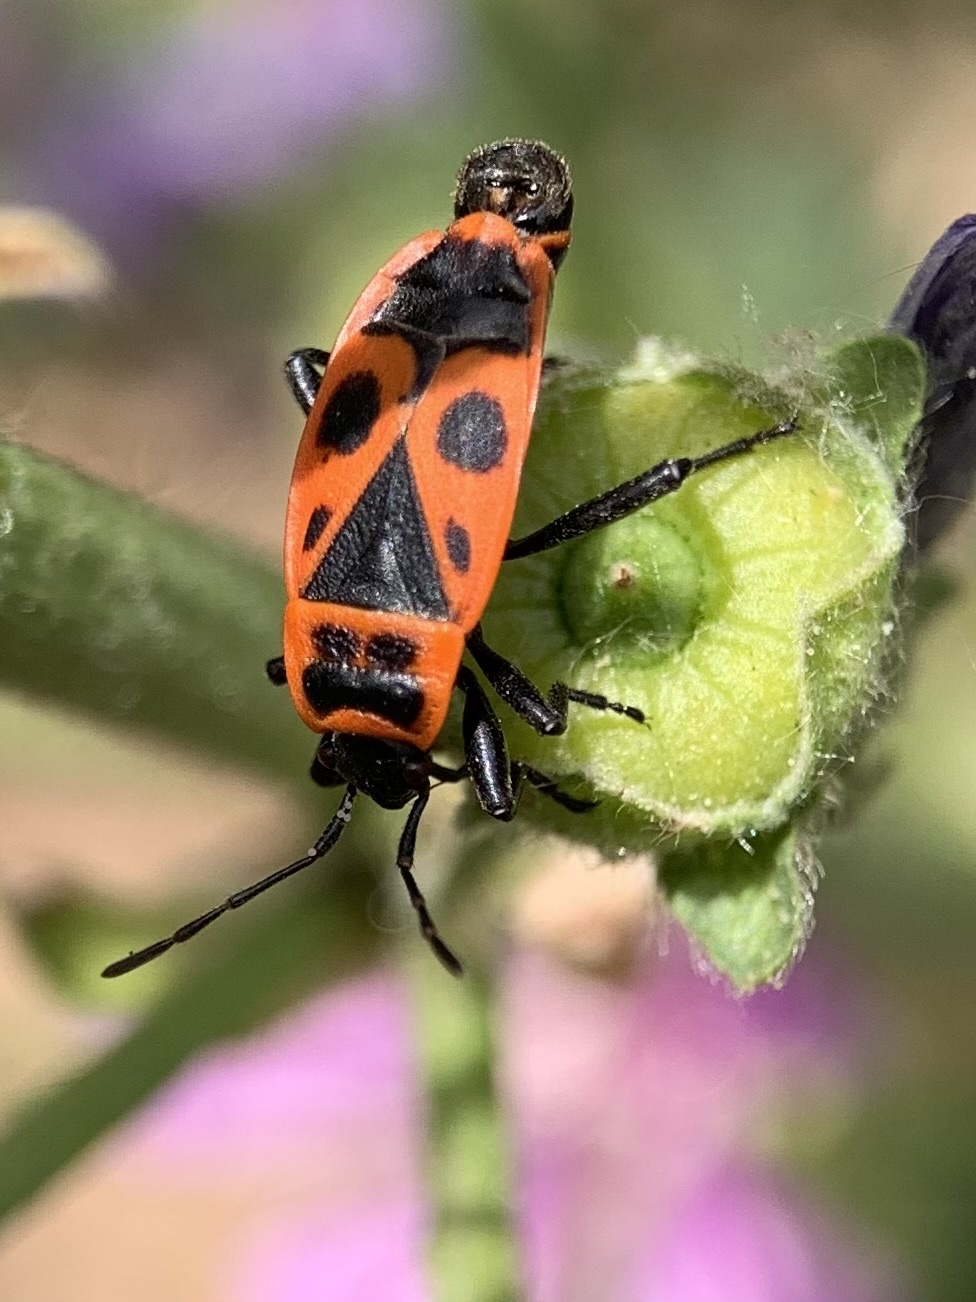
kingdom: Animalia
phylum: Arthropoda
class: Insecta
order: Hemiptera
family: Pyrrhocoridae
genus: Pyrrhocoris
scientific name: Pyrrhocoris apterus
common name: Firebug
